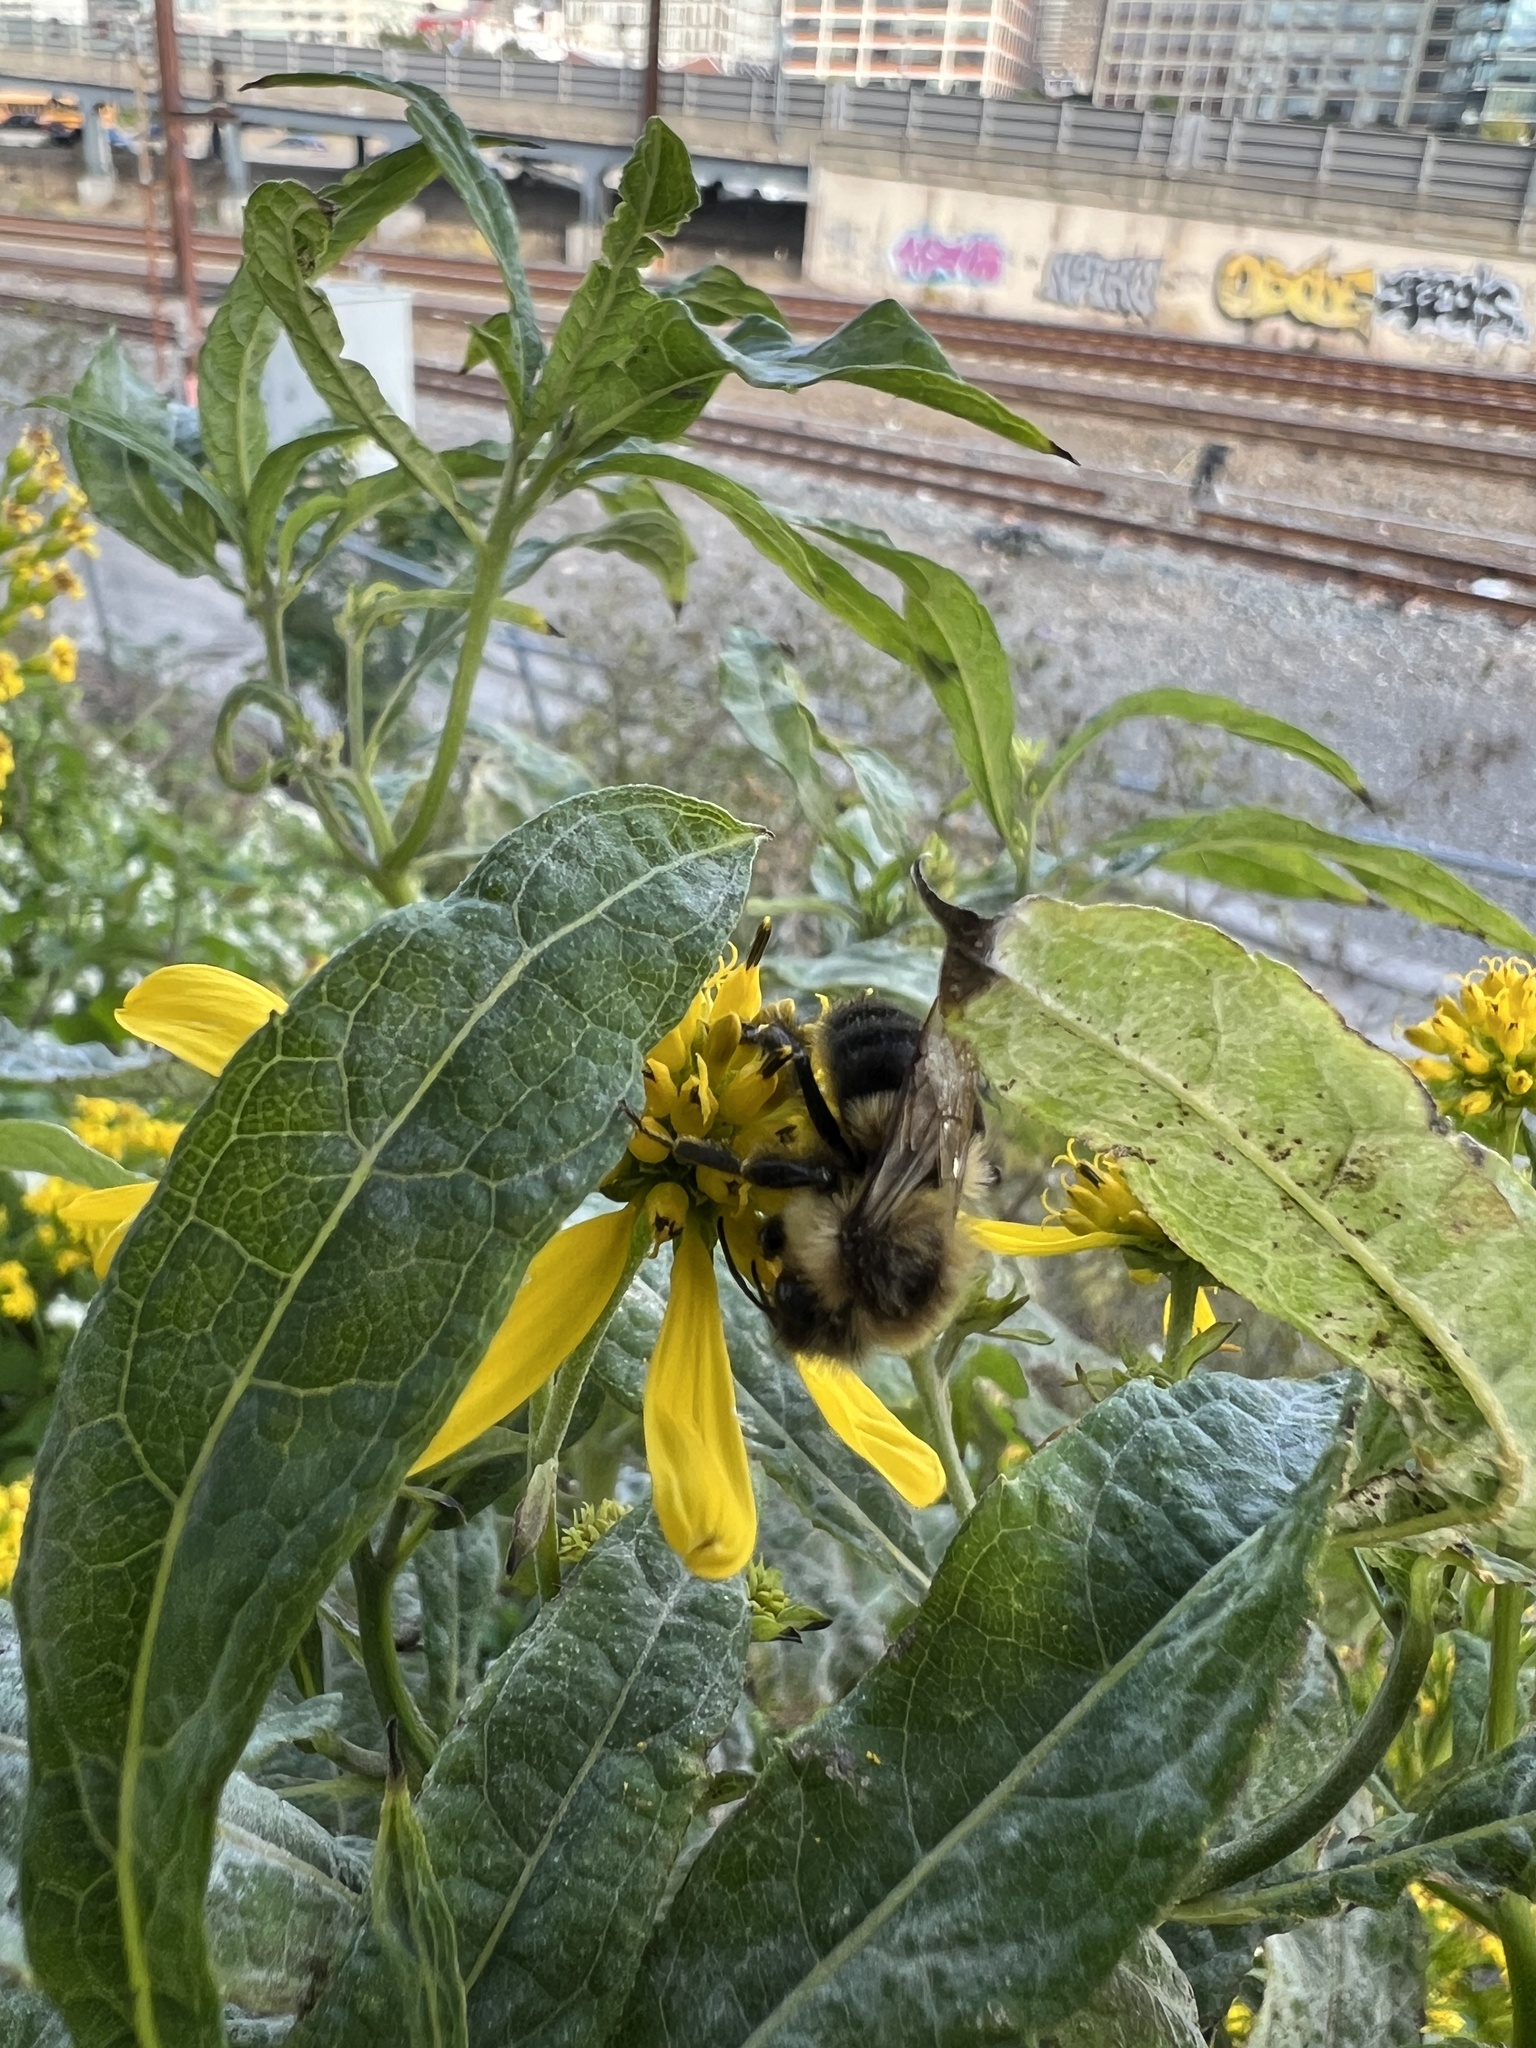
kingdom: Animalia
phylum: Arthropoda
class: Insecta
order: Hymenoptera
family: Apidae
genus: Bombus
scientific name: Bombus impatiens
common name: Common eastern bumble bee
